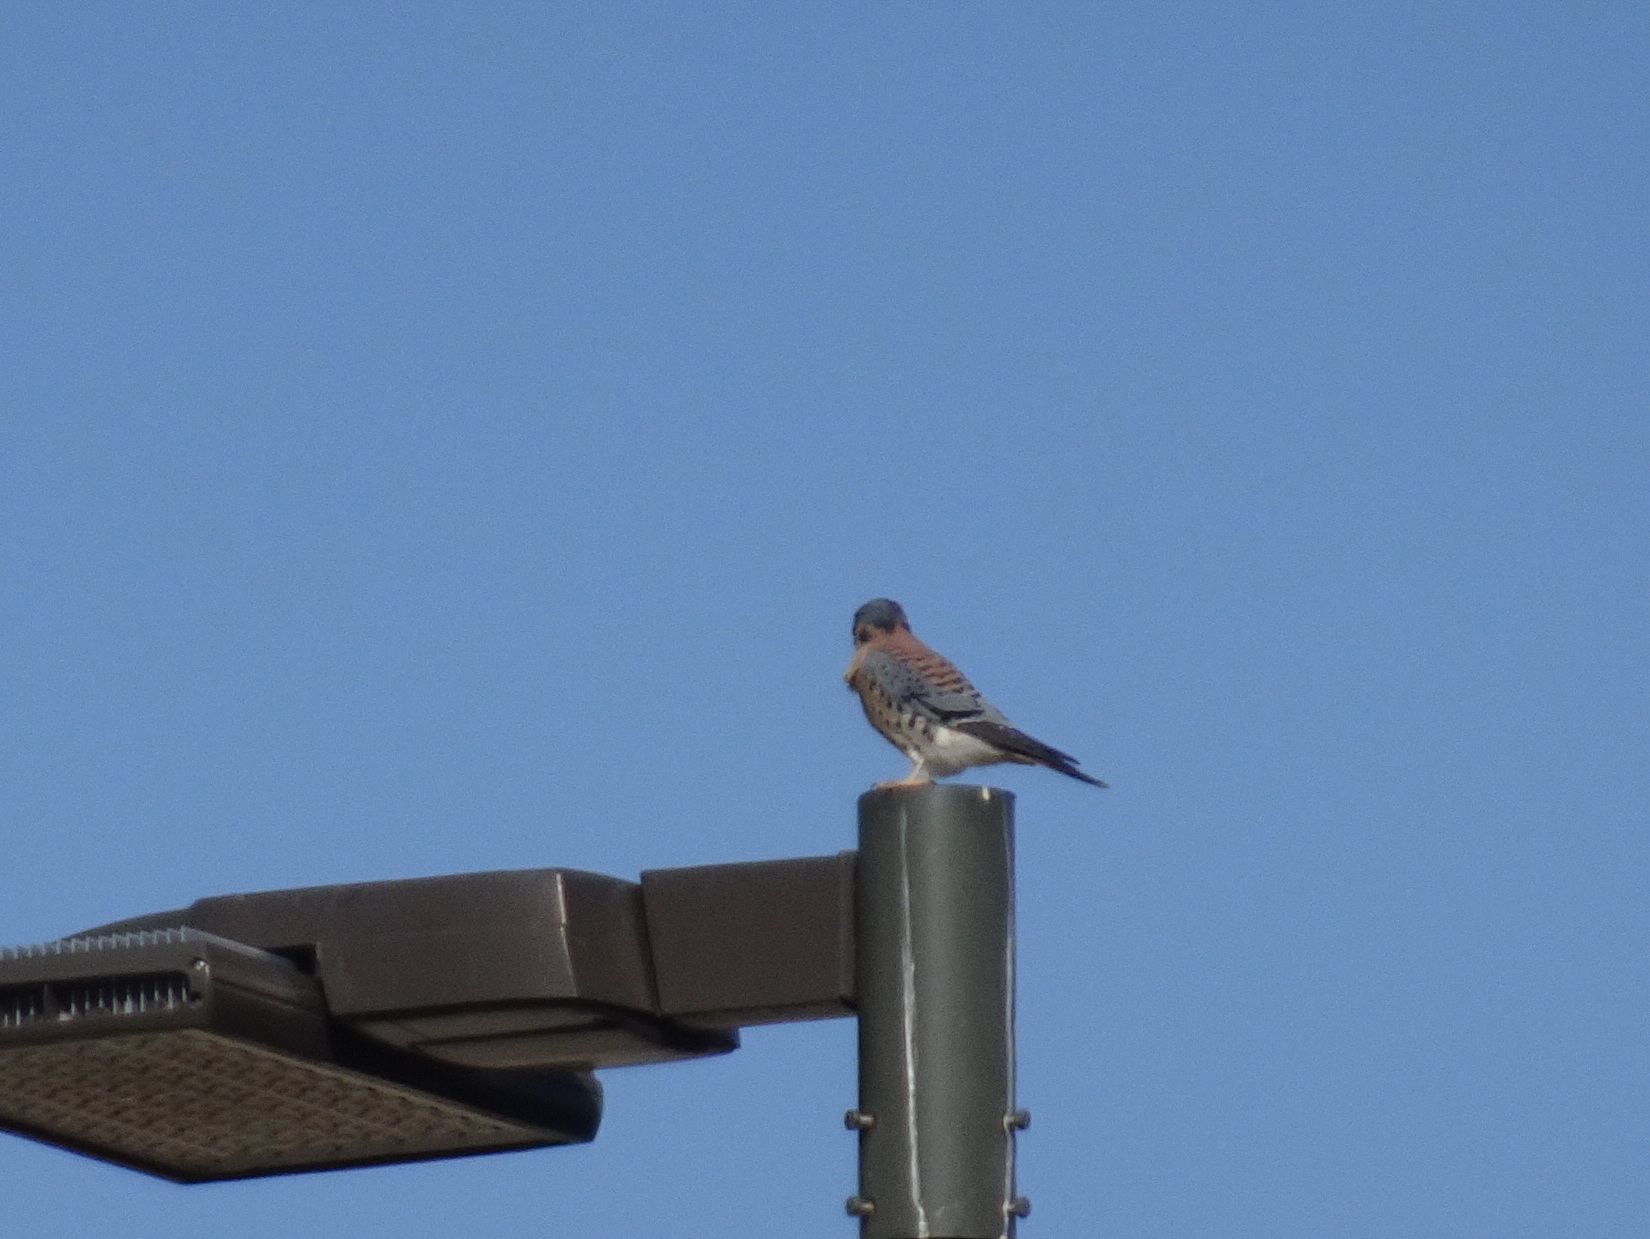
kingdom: Animalia
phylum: Chordata
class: Aves
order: Falconiformes
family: Falconidae
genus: Falco
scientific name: Falco sparverius
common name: American kestrel
